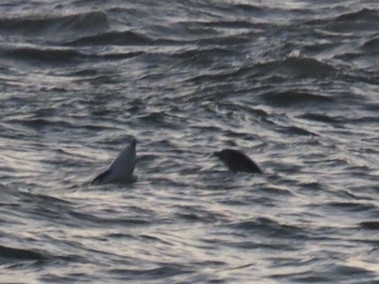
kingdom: Animalia
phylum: Chordata
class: Mammalia
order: Cetacea
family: Delphinidae
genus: Tursiops
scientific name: Tursiops truncatus
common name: Bottlenose dolphin
